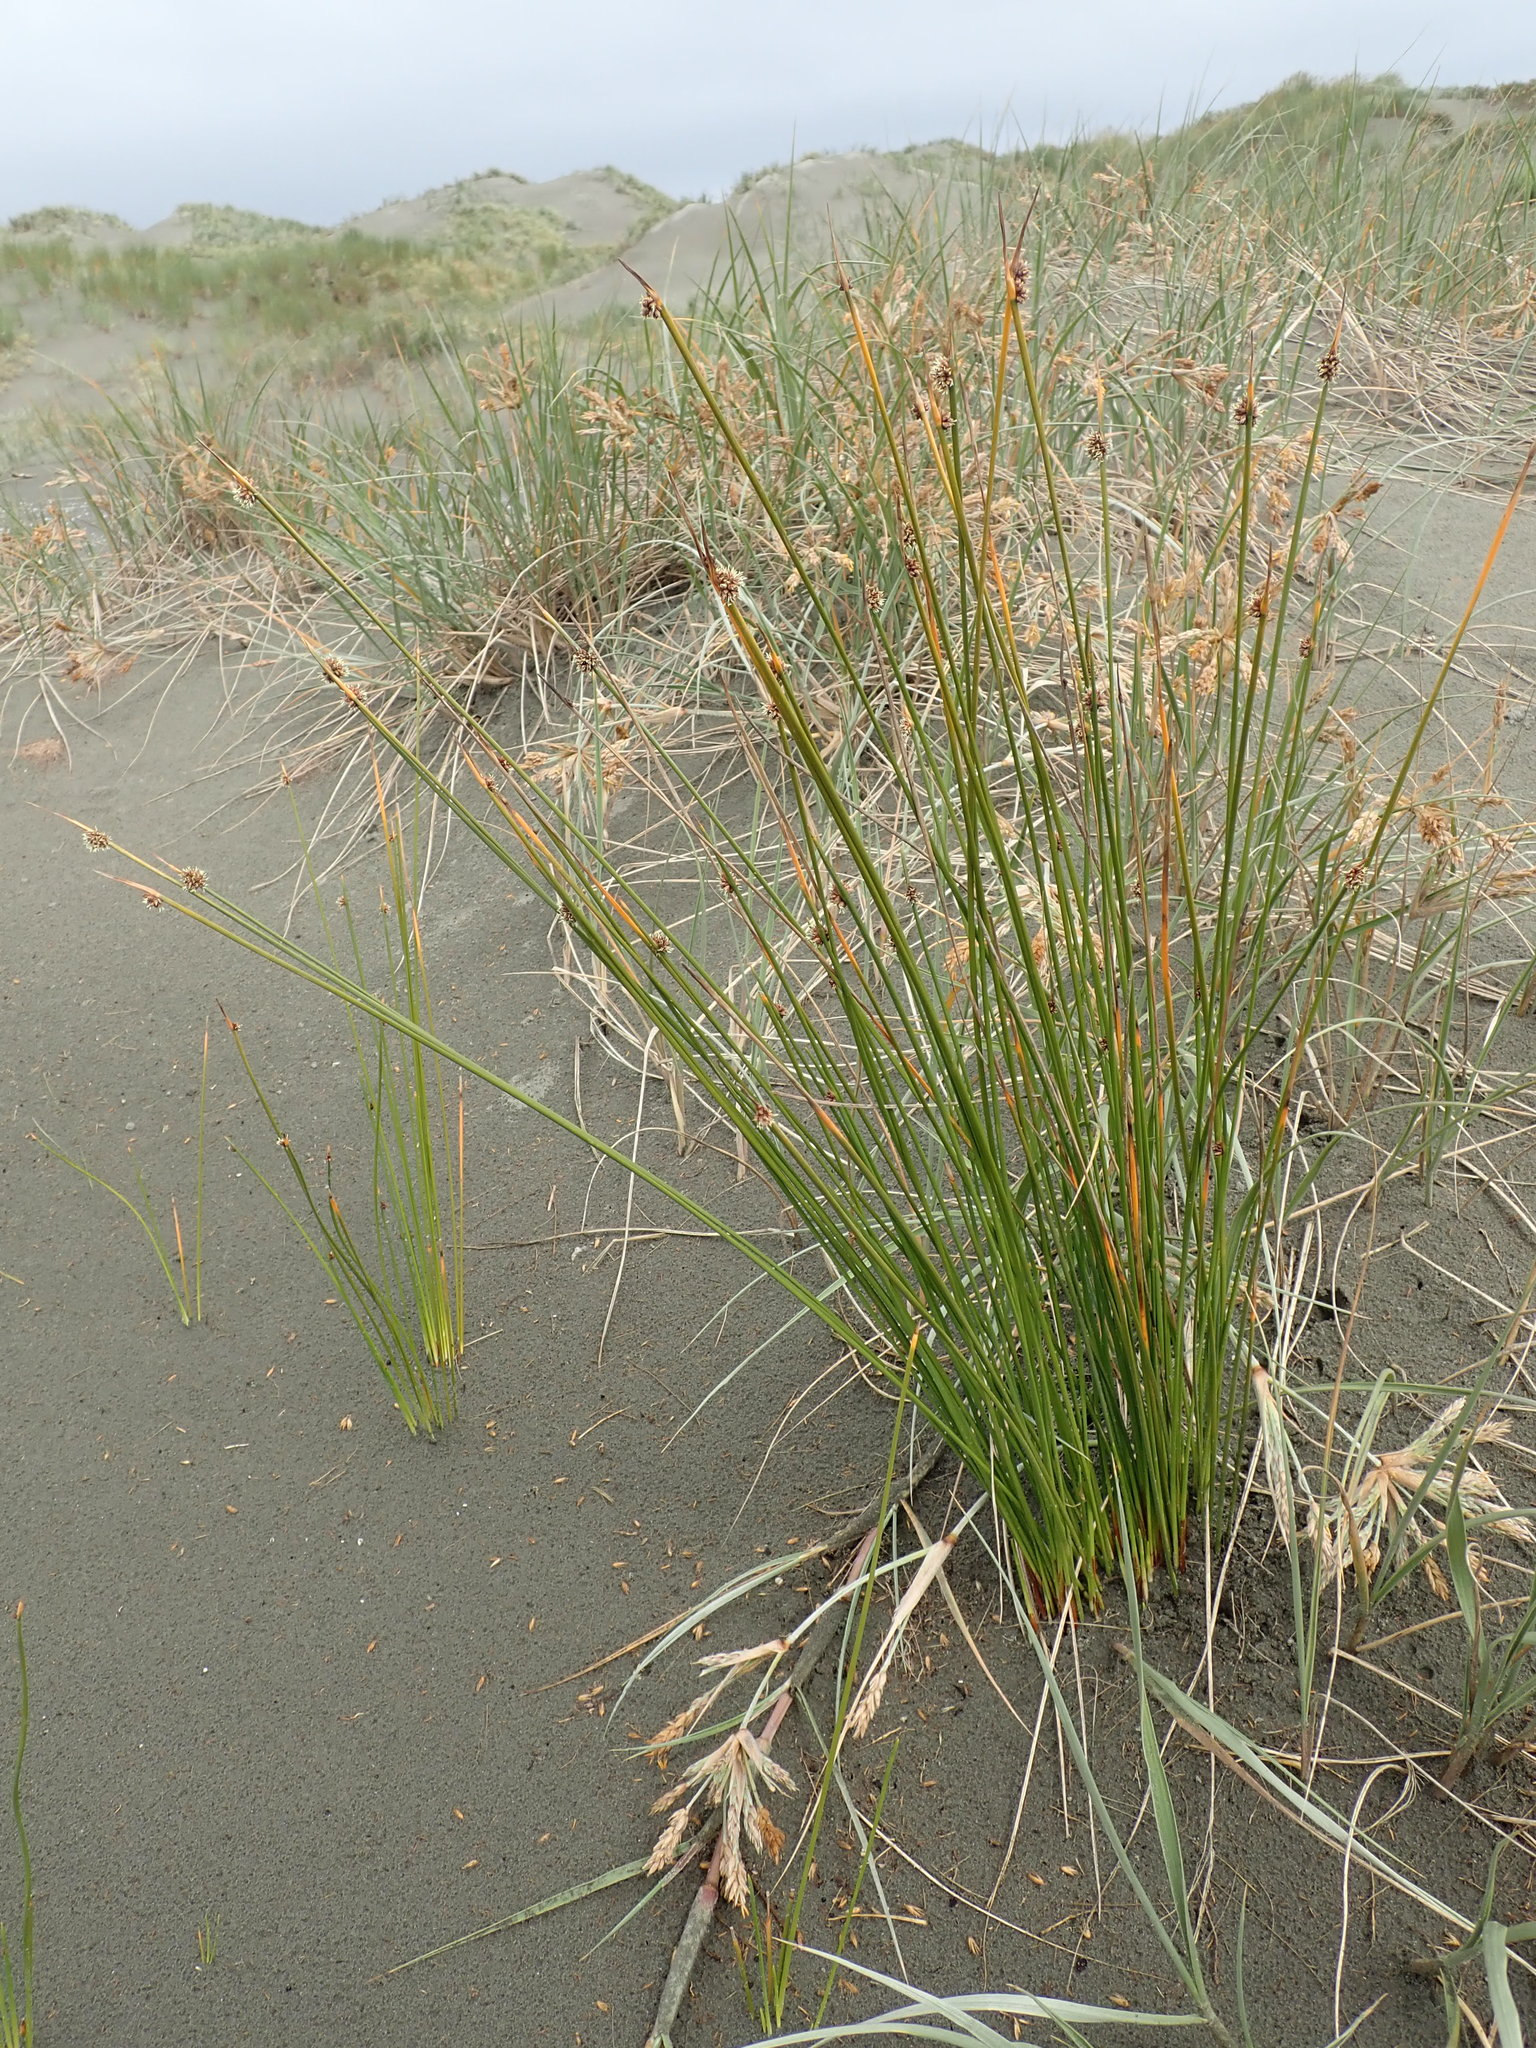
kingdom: Plantae
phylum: Tracheophyta
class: Liliopsida
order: Poales
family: Cyperaceae
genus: Ficinia
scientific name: Ficinia nodosa
